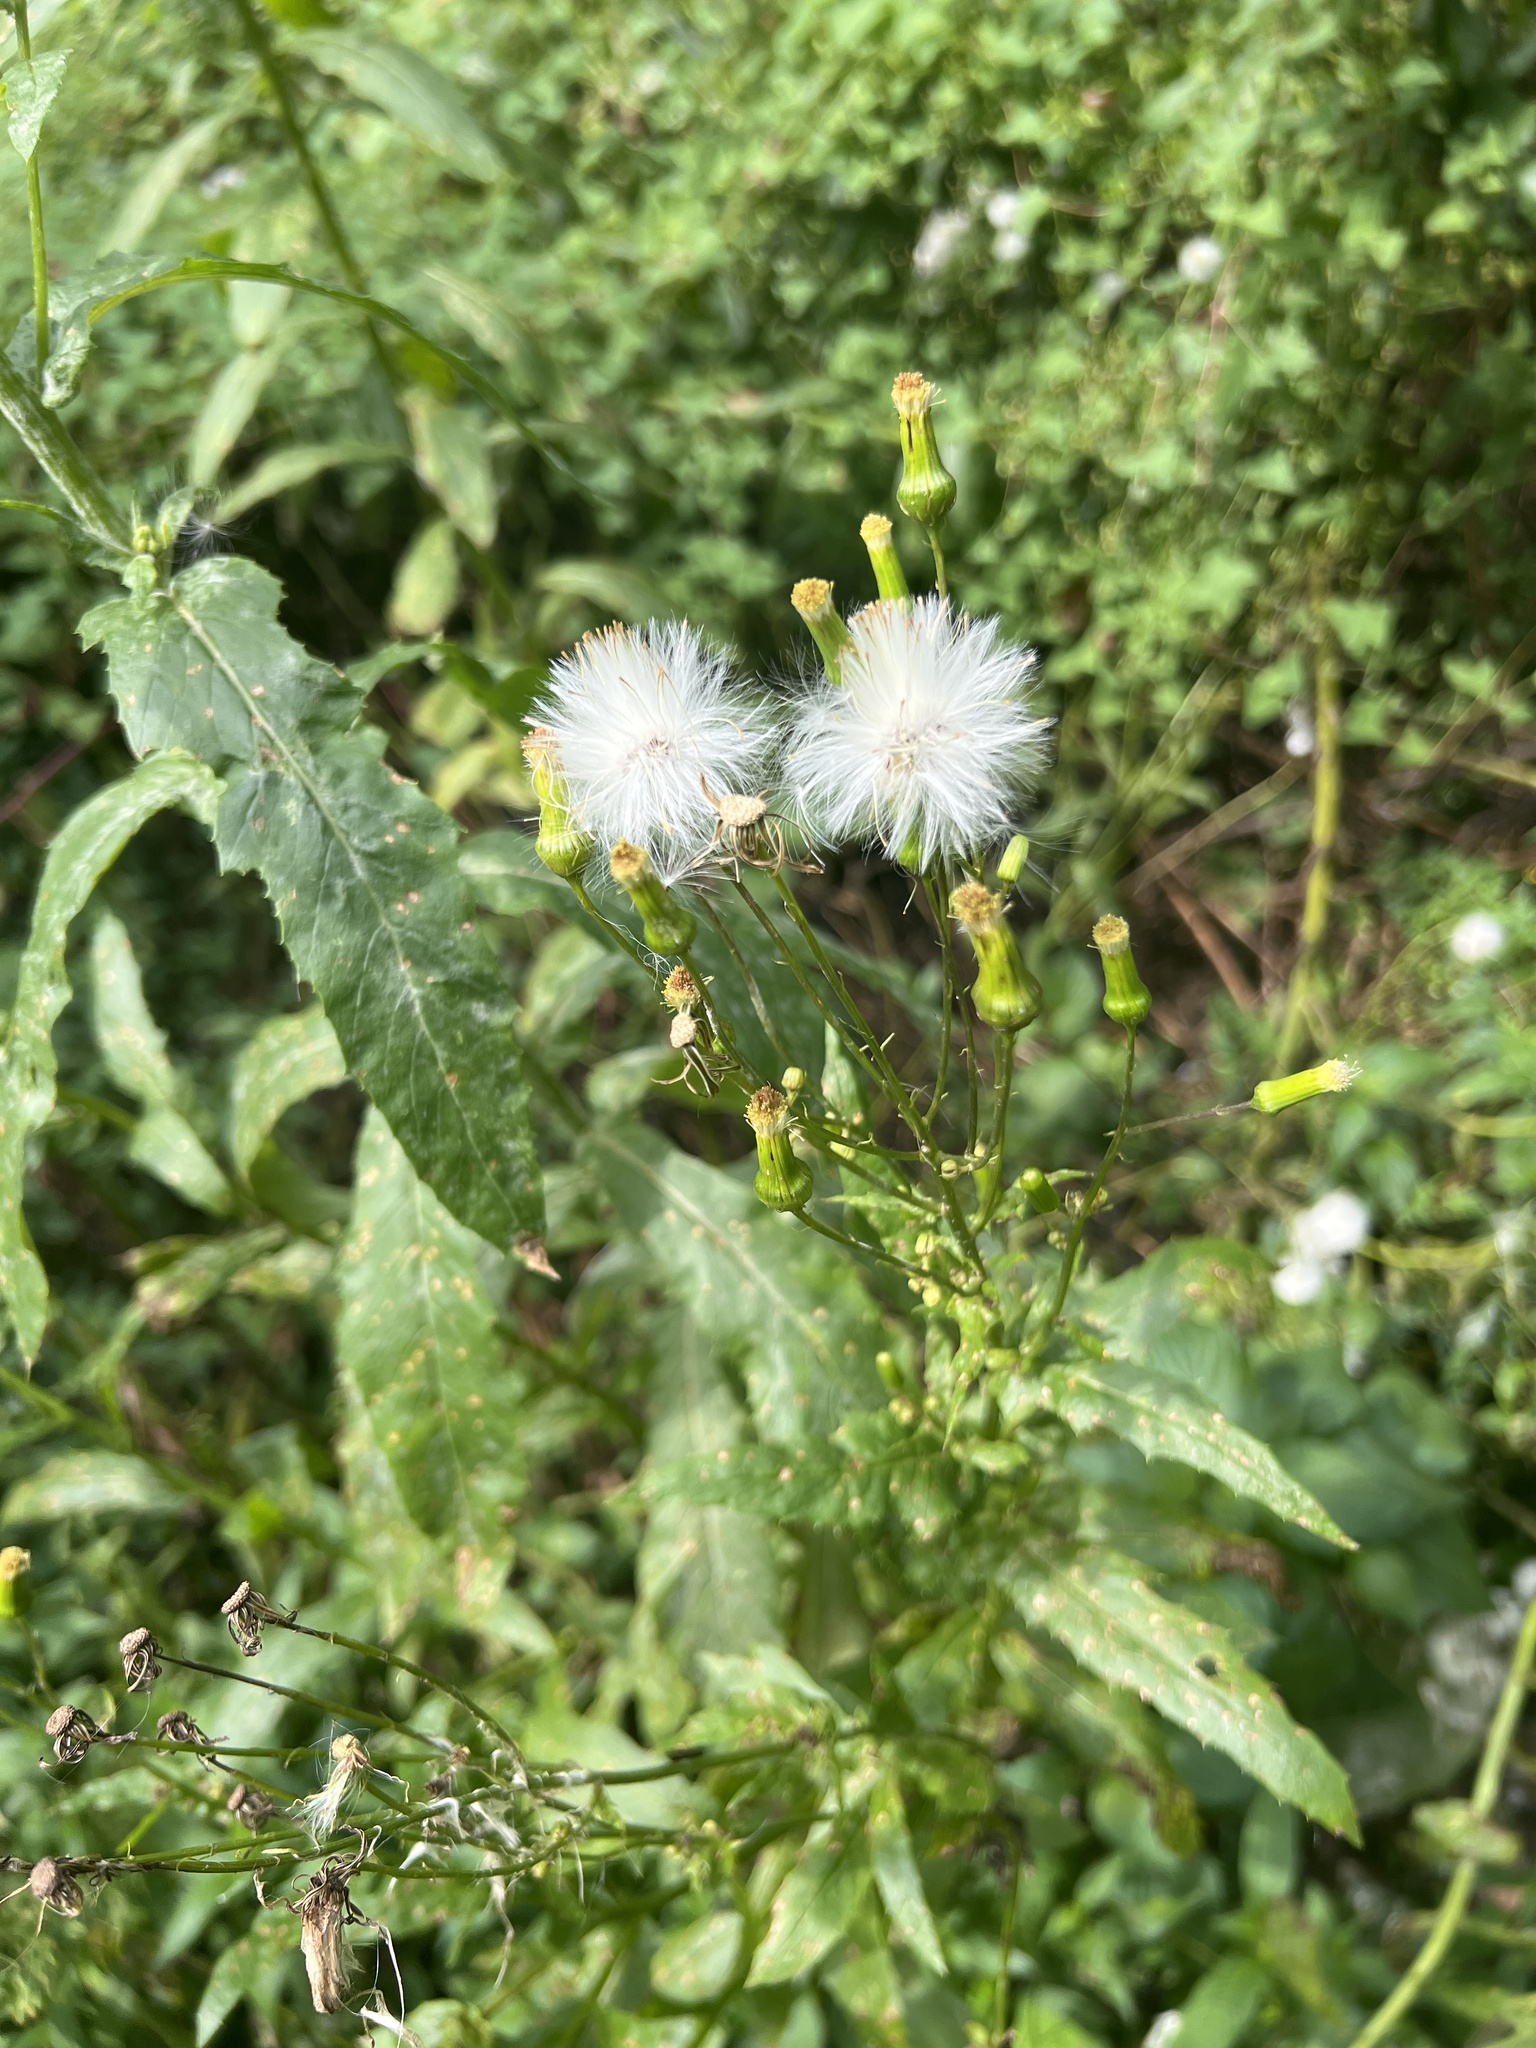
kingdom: Plantae
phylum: Tracheophyta
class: Magnoliopsida
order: Asterales
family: Asteraceae
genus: Erechtites
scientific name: Erechtites hieraciifolius
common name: American burnweed
